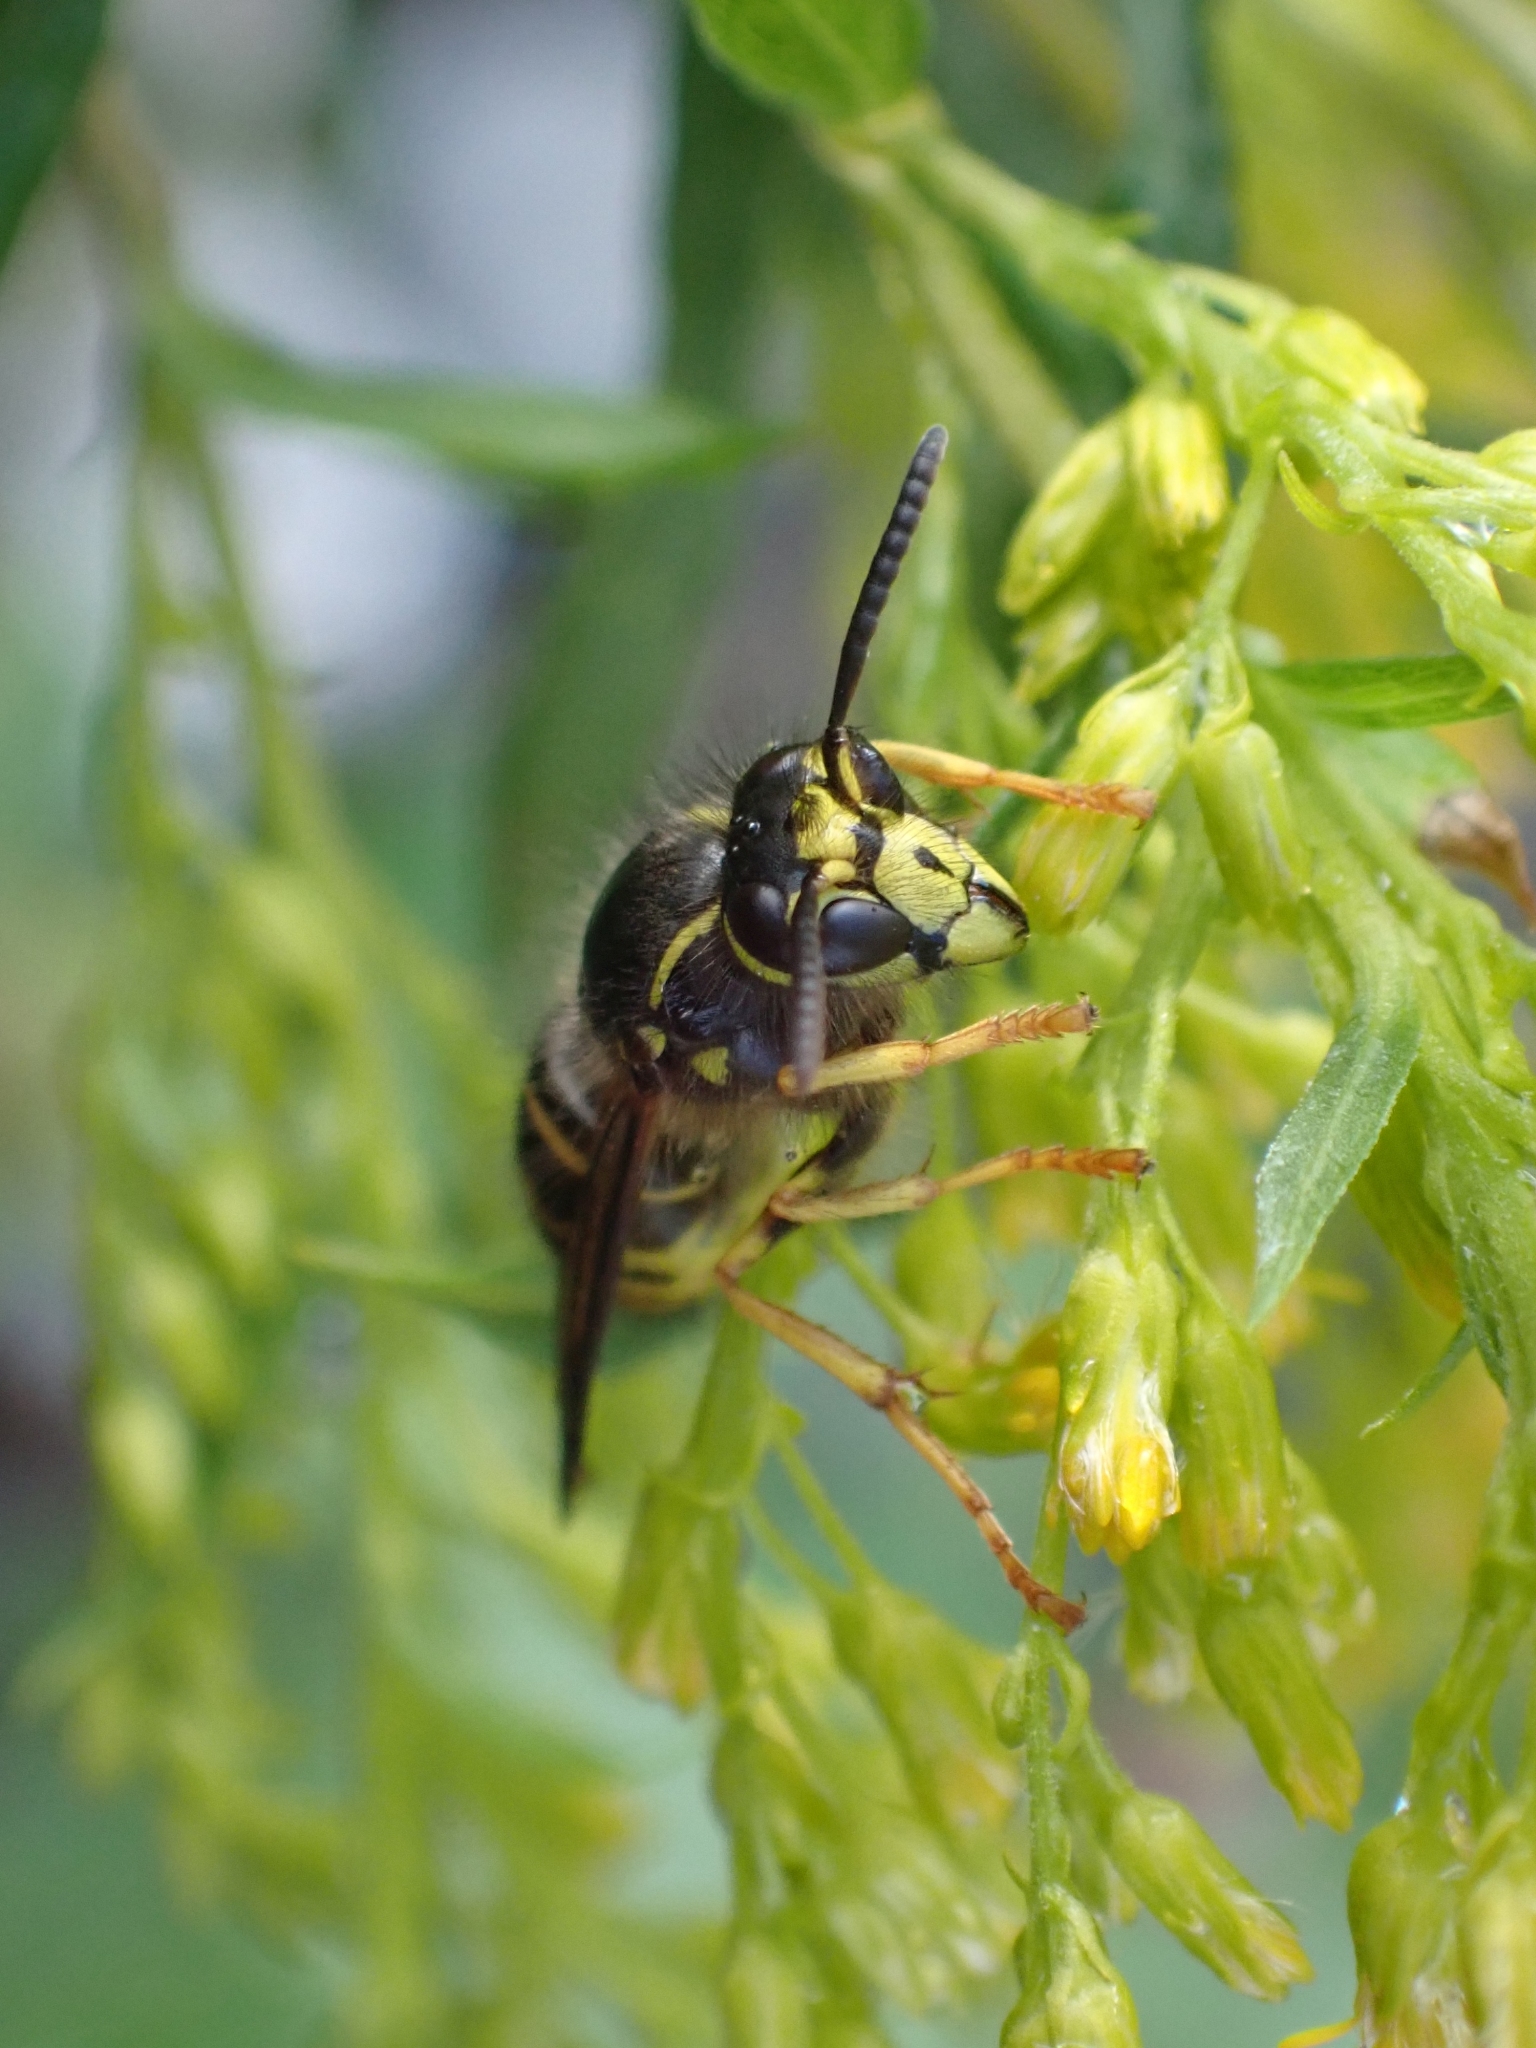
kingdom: Animalia
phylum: Arthropoda
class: Insecta
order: Hymenoptera
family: Vespidae
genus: Dolichovespula
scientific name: Dolichovespula arenaria
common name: Aerial yellowjacket
